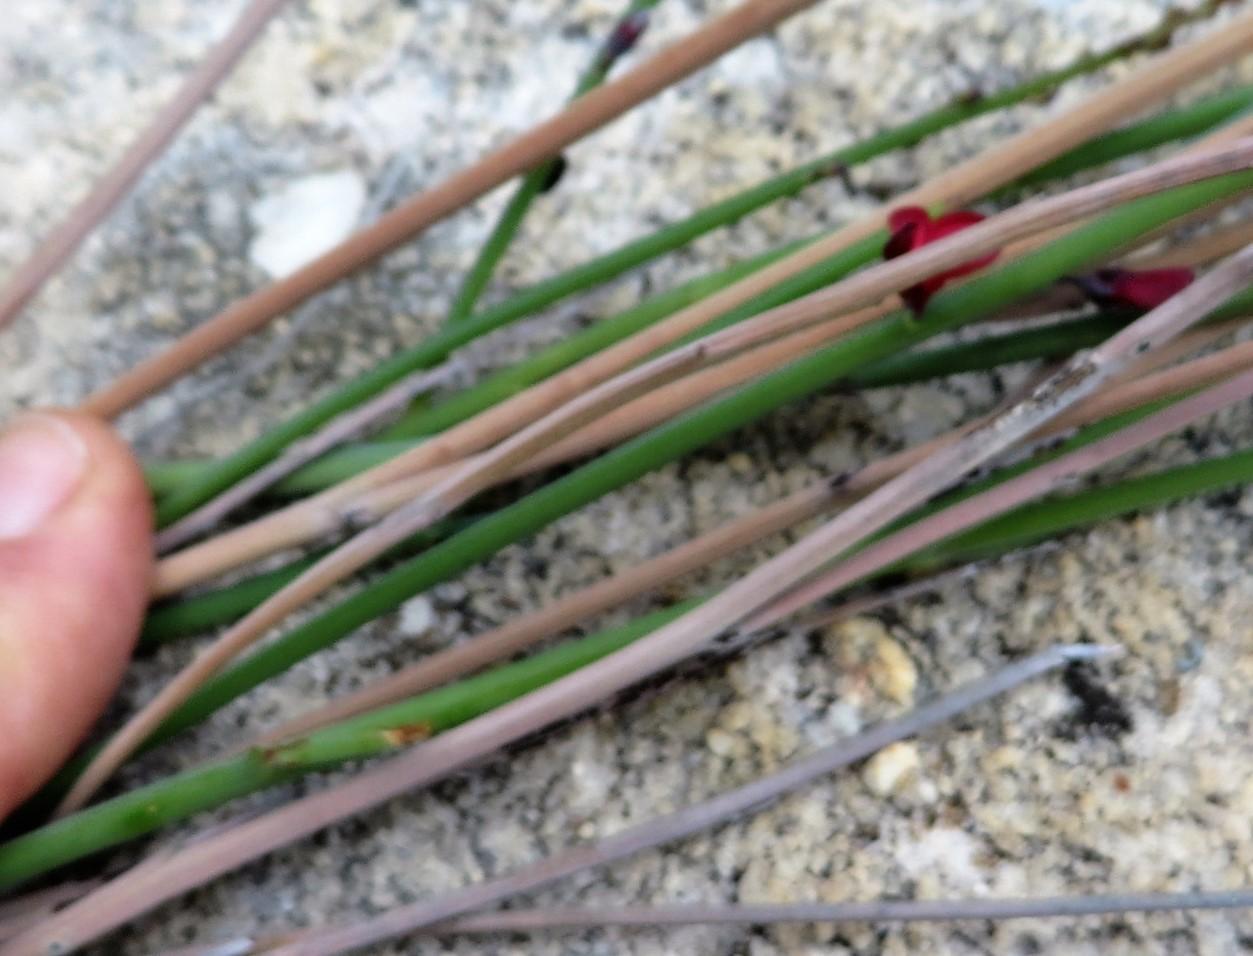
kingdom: Plantae
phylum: Tracheophyta
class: Magnoliopsida
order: Fabales
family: Fabaceae
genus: Indigofera
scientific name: Indigofera gifbergensis
